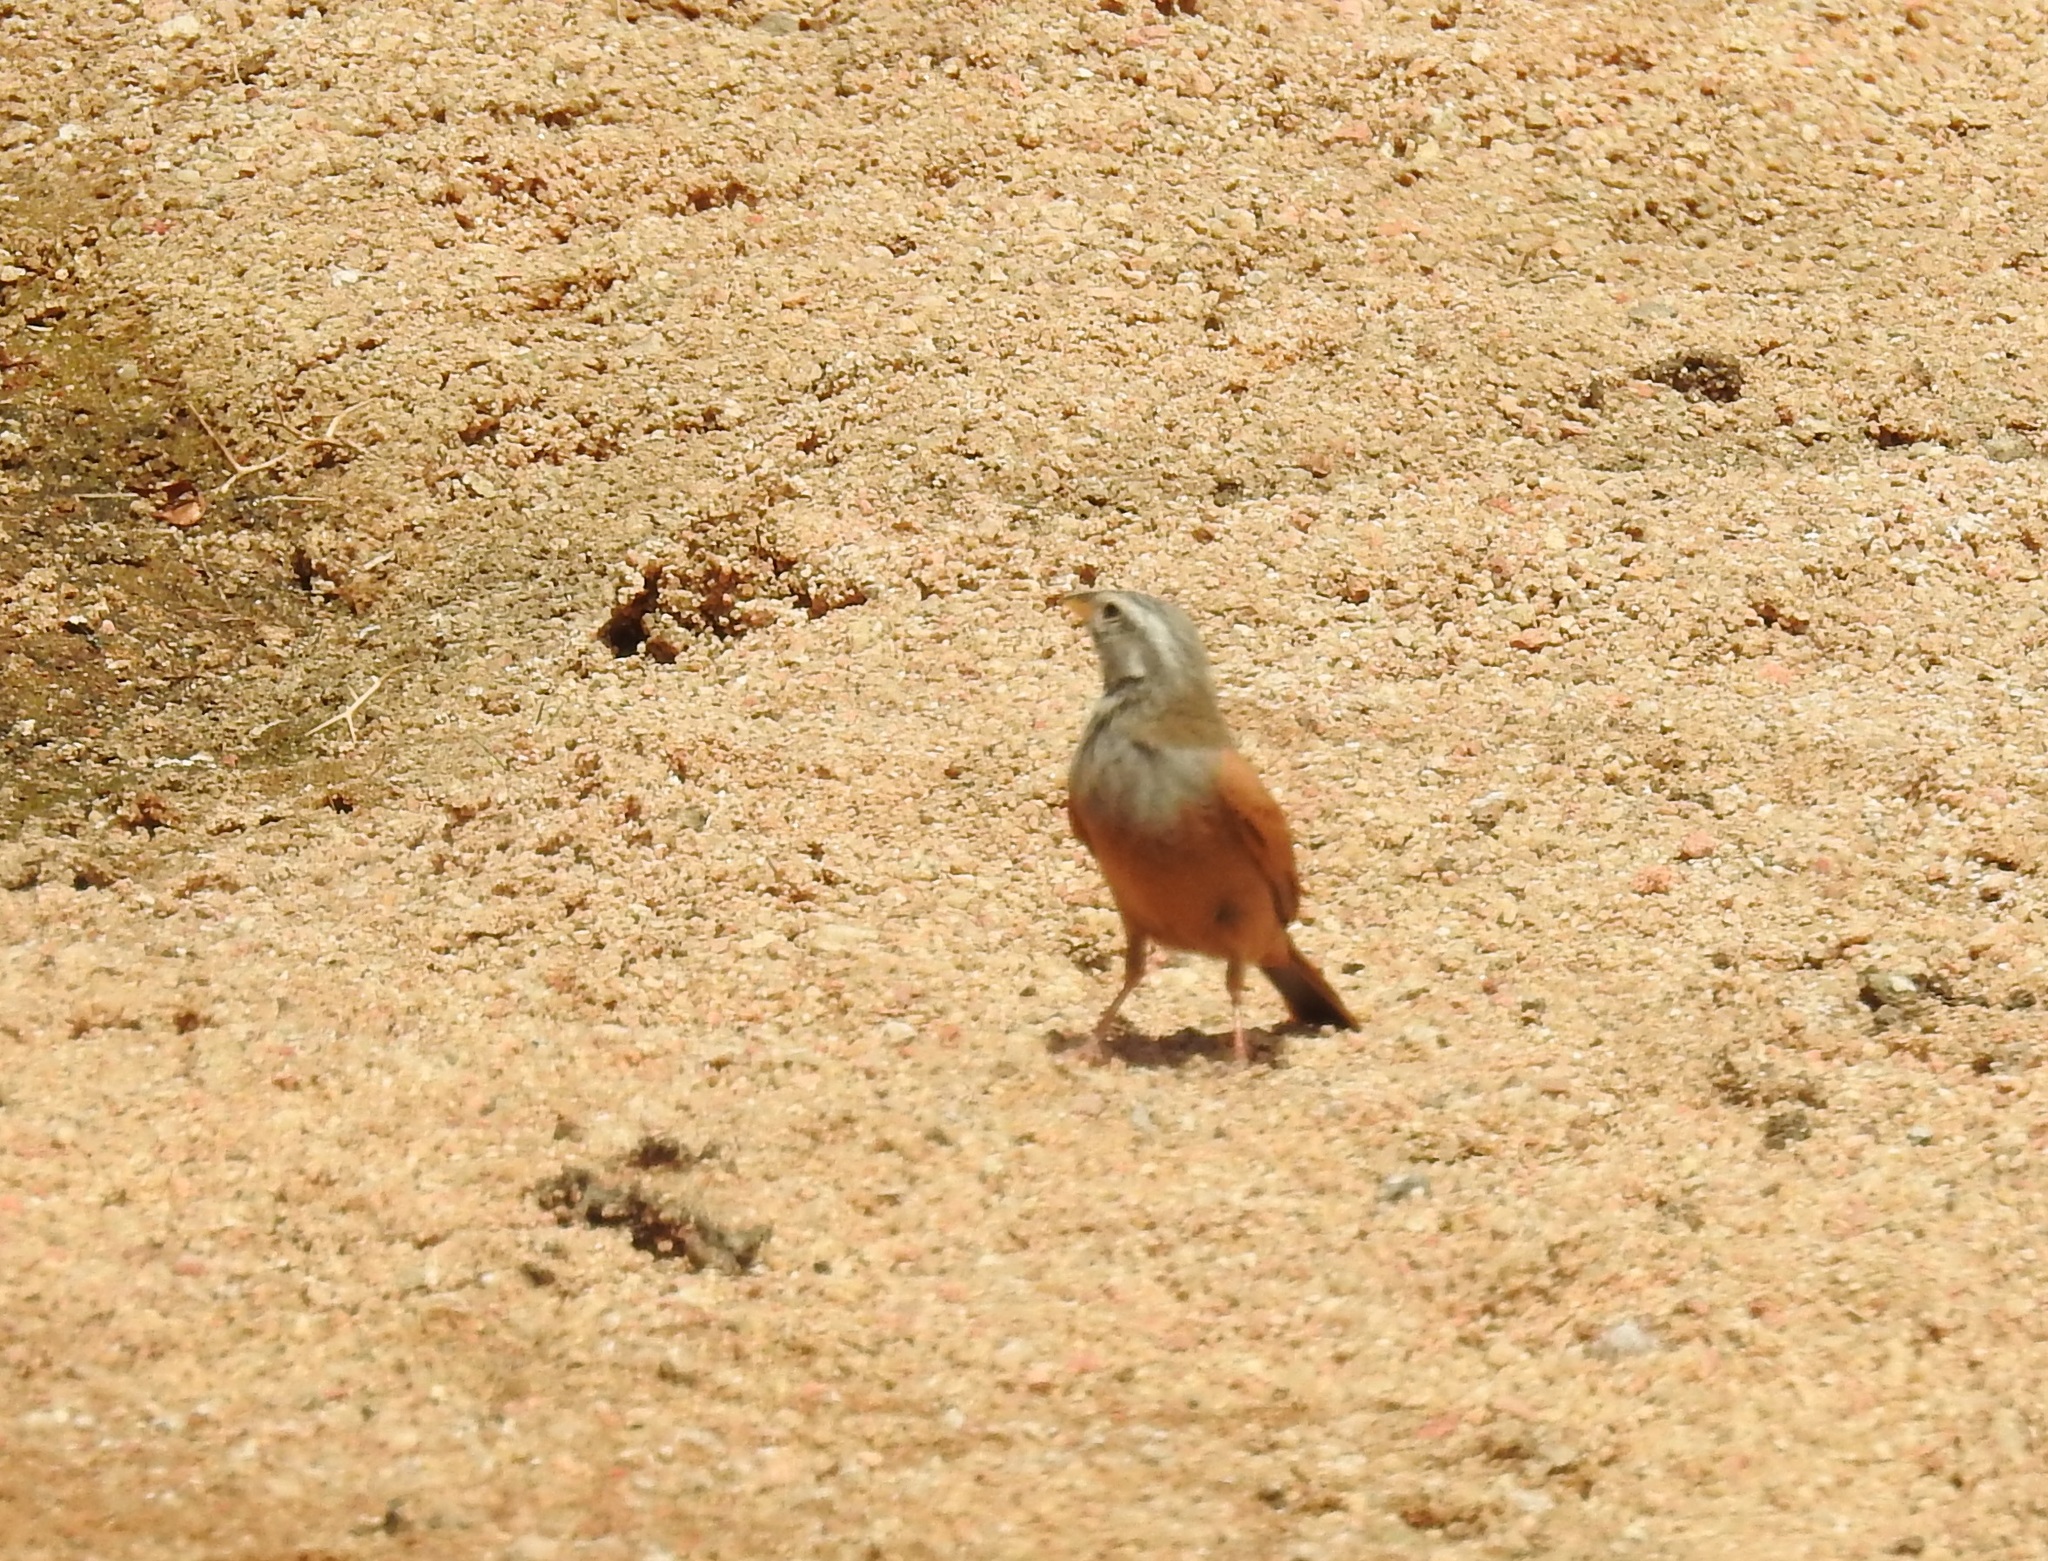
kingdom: Animalia
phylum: Chordata
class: Aves
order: Passeriformes
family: Emberizidae
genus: Emberiza
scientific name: Emberiza sahari
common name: House bunting
